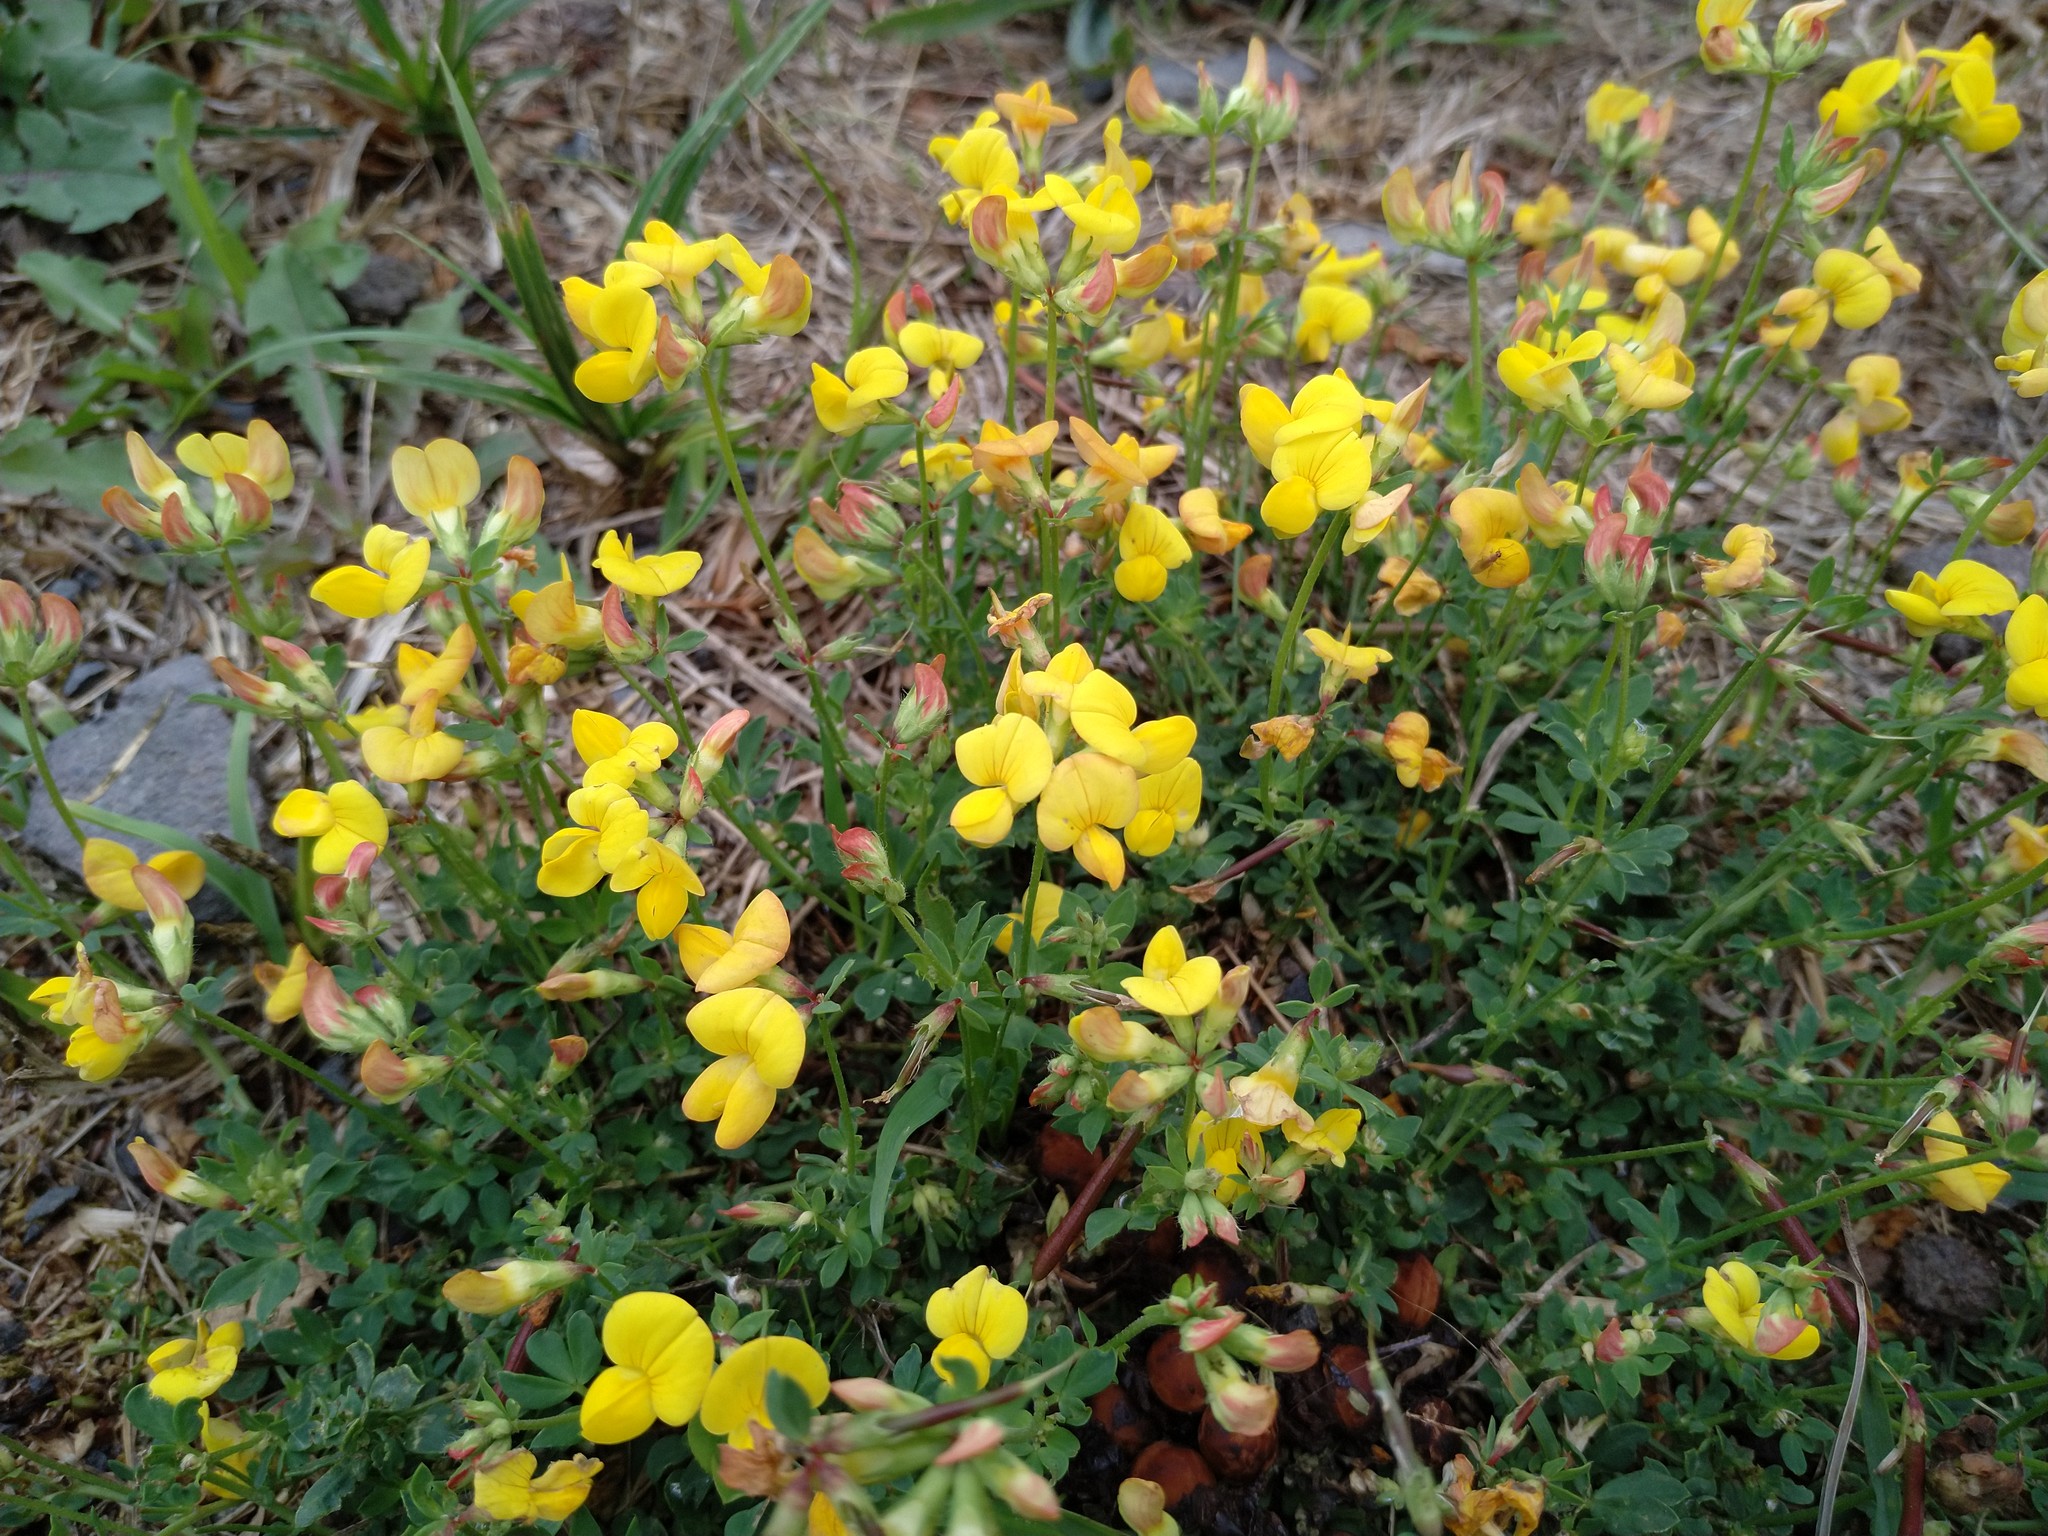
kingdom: Plantae
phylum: Tracheophyta
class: Magnoliopsida
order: Fabales
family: Fabaceae
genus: Lotus
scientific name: Lotus corniculatus
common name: Common bird's-foot-trefoil
